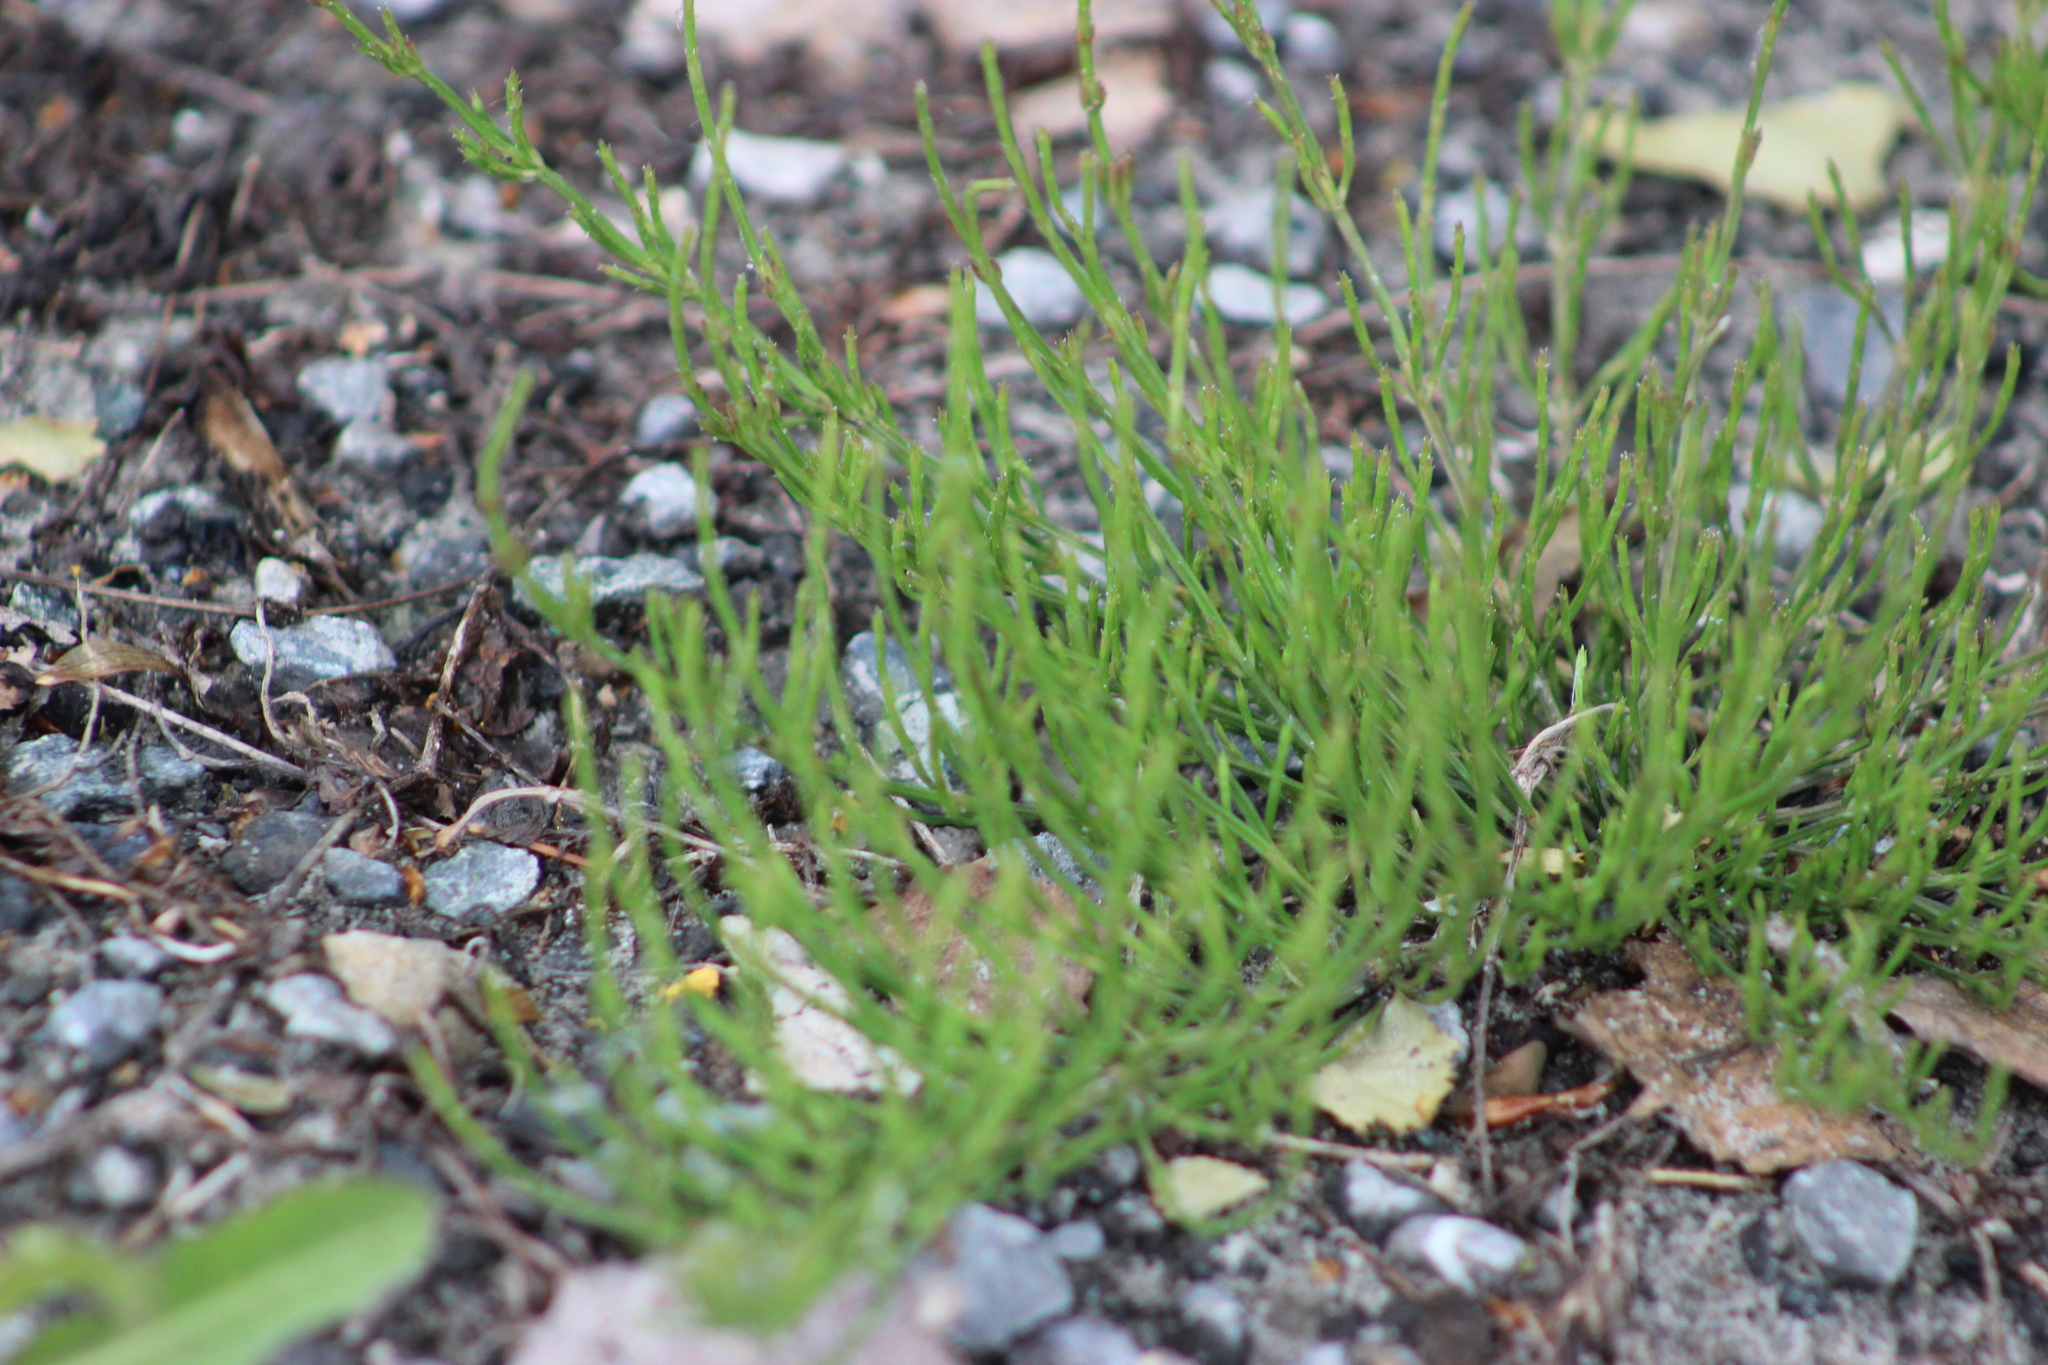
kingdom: Plantae
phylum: Tracheophyta
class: Polypodiopsida
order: Equisetales
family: Equisetaceae
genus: Equisetum
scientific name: Equisetum arvense
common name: Field horsetail
